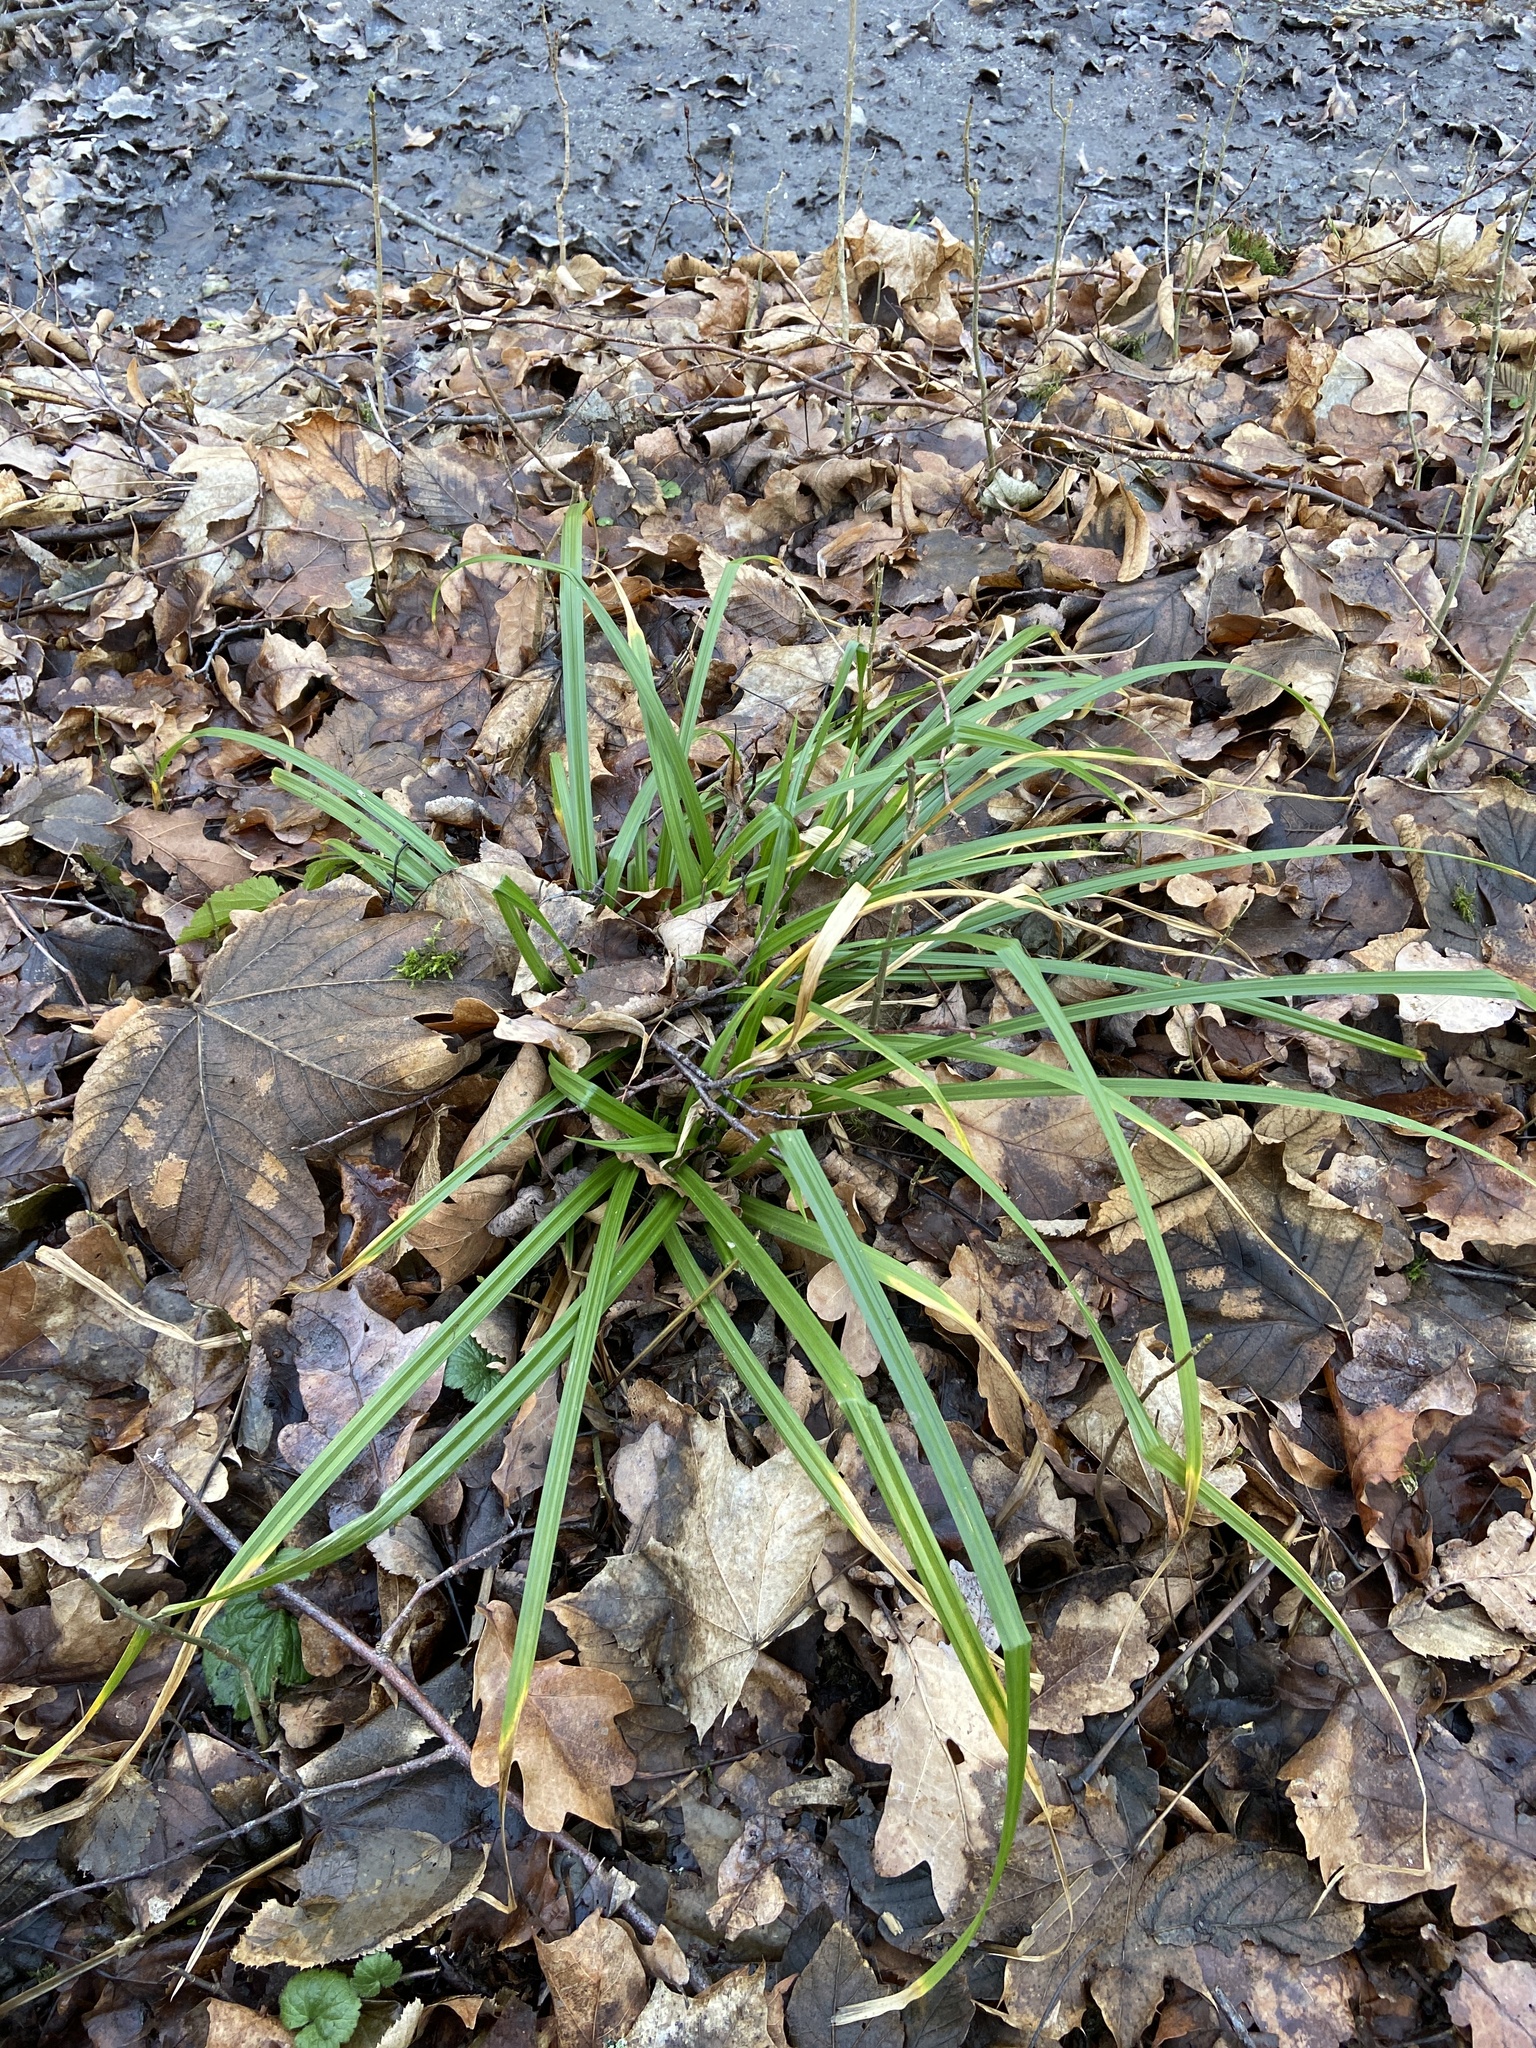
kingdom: Plantae
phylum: Tracheophyta
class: Liliopsida
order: Poales
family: Cyperaceae
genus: Carex
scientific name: Carex sylvatica
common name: Wood-sedge
